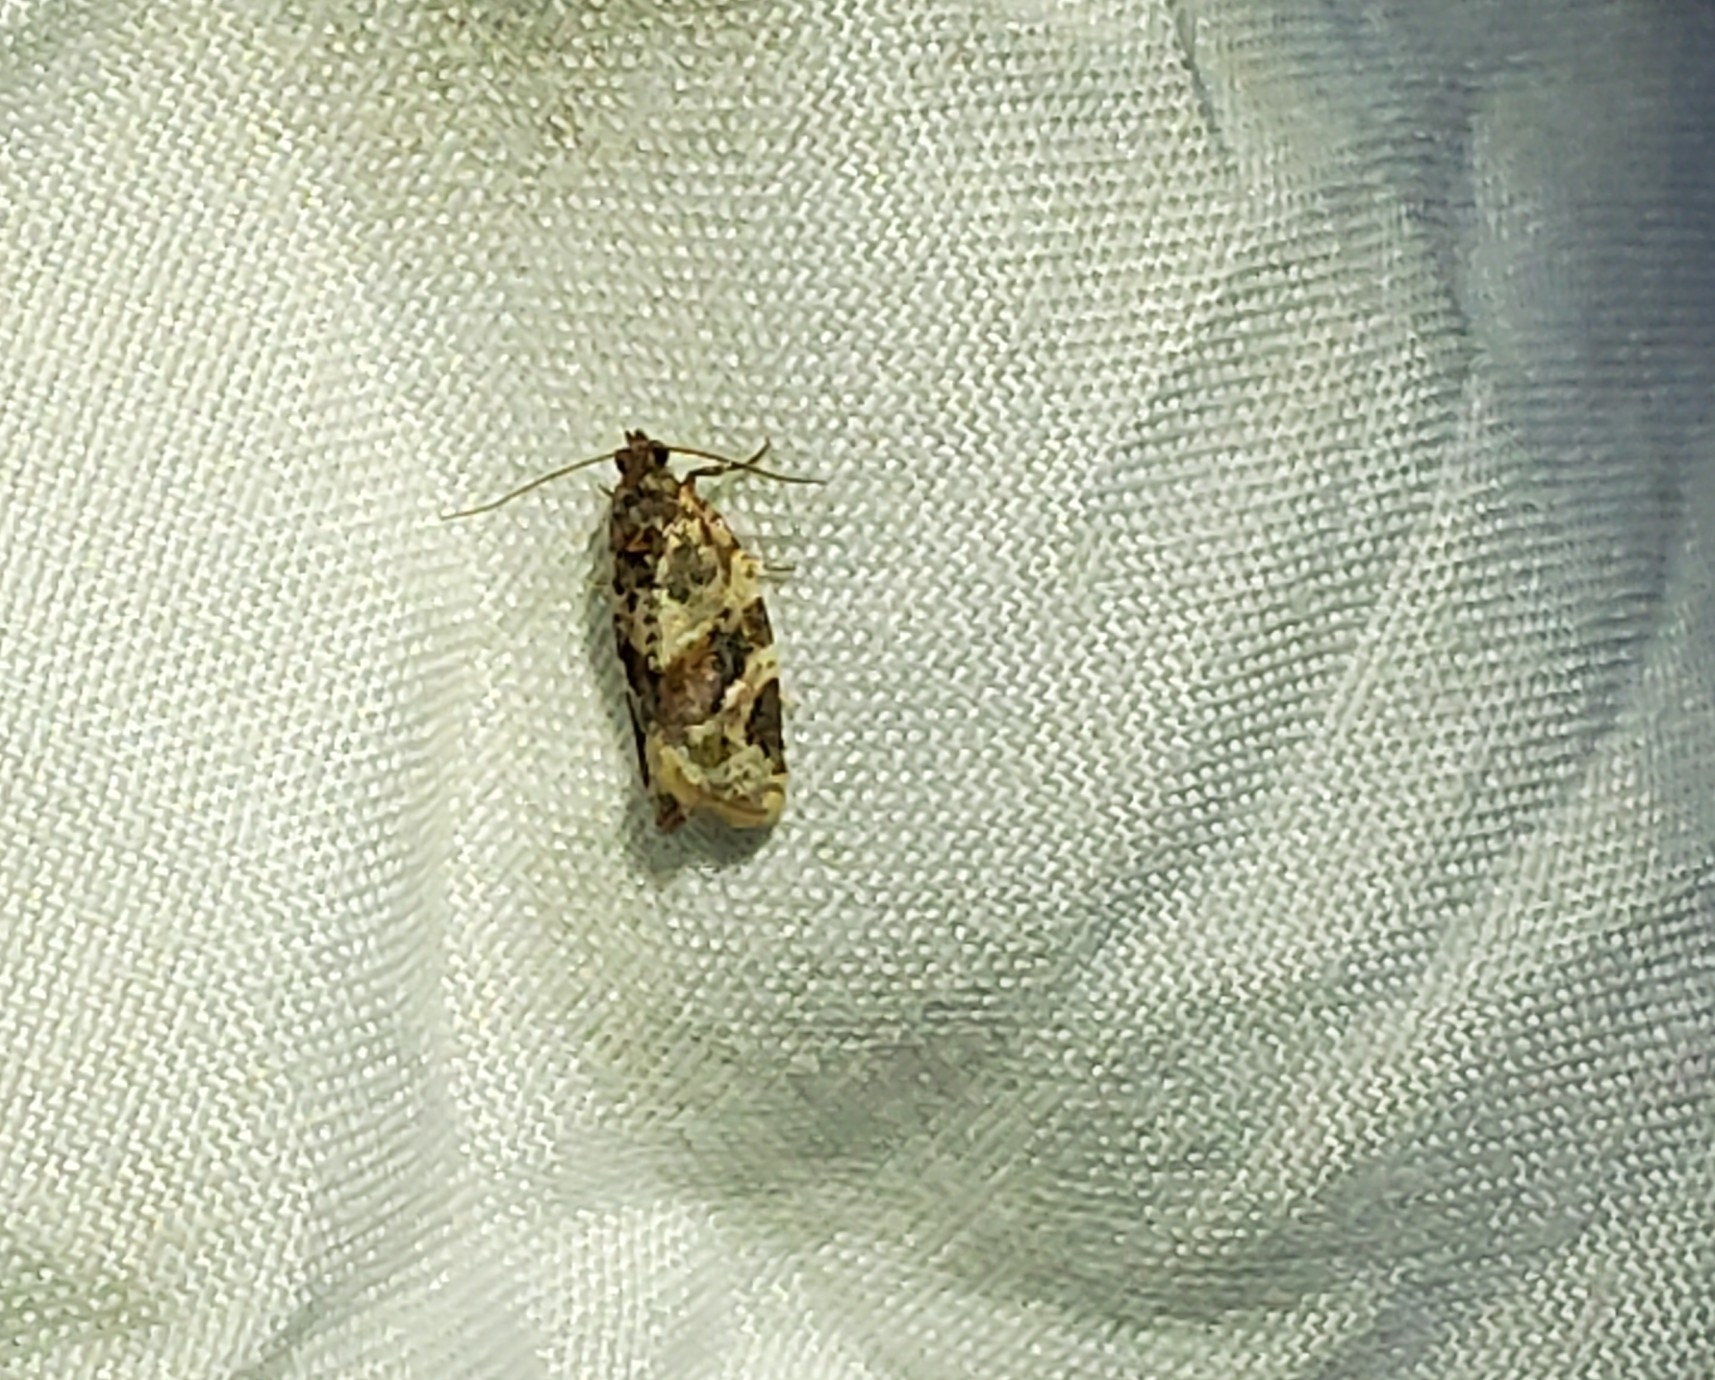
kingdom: Animalia
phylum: Arthropoda
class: Insecta
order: Lepidoptera
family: Tortricidae
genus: Argyrotaenia
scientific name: Argyrotaenia velutinana
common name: Red-banded leafroller moth
